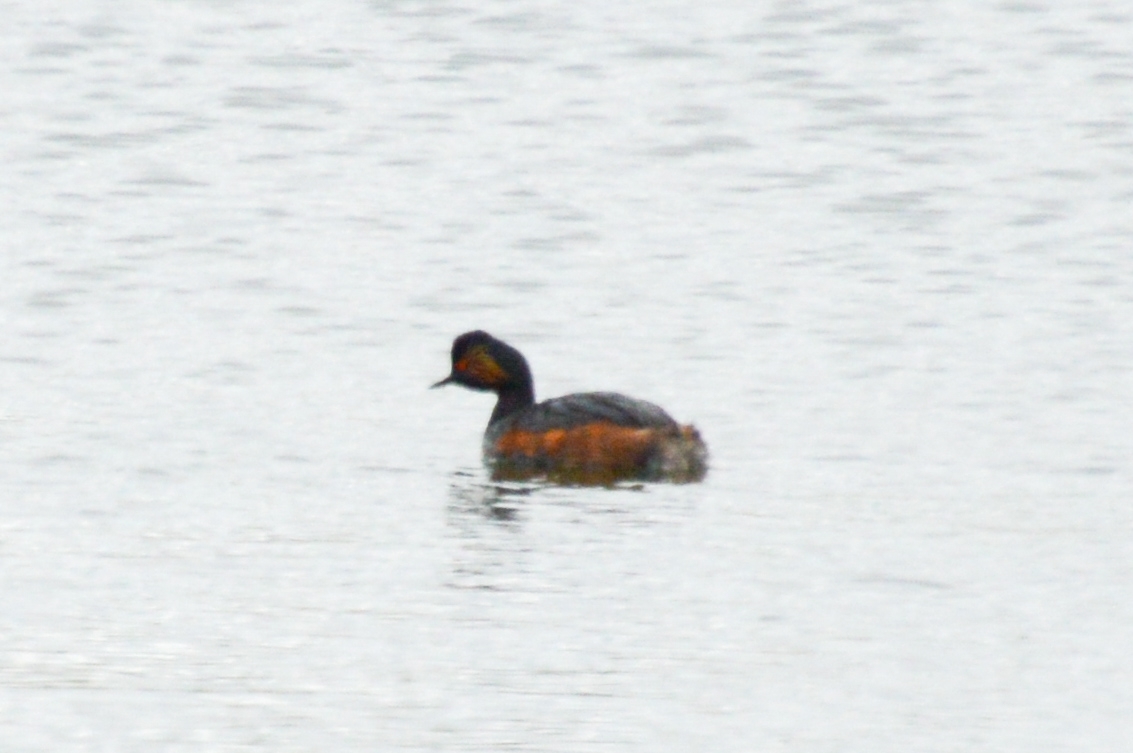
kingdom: Animalia
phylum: Chordata
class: Aves
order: Podicipediformes
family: Podicipedidae
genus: Podiceps
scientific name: Podiceps nigricollis
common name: Black-necked grebe
